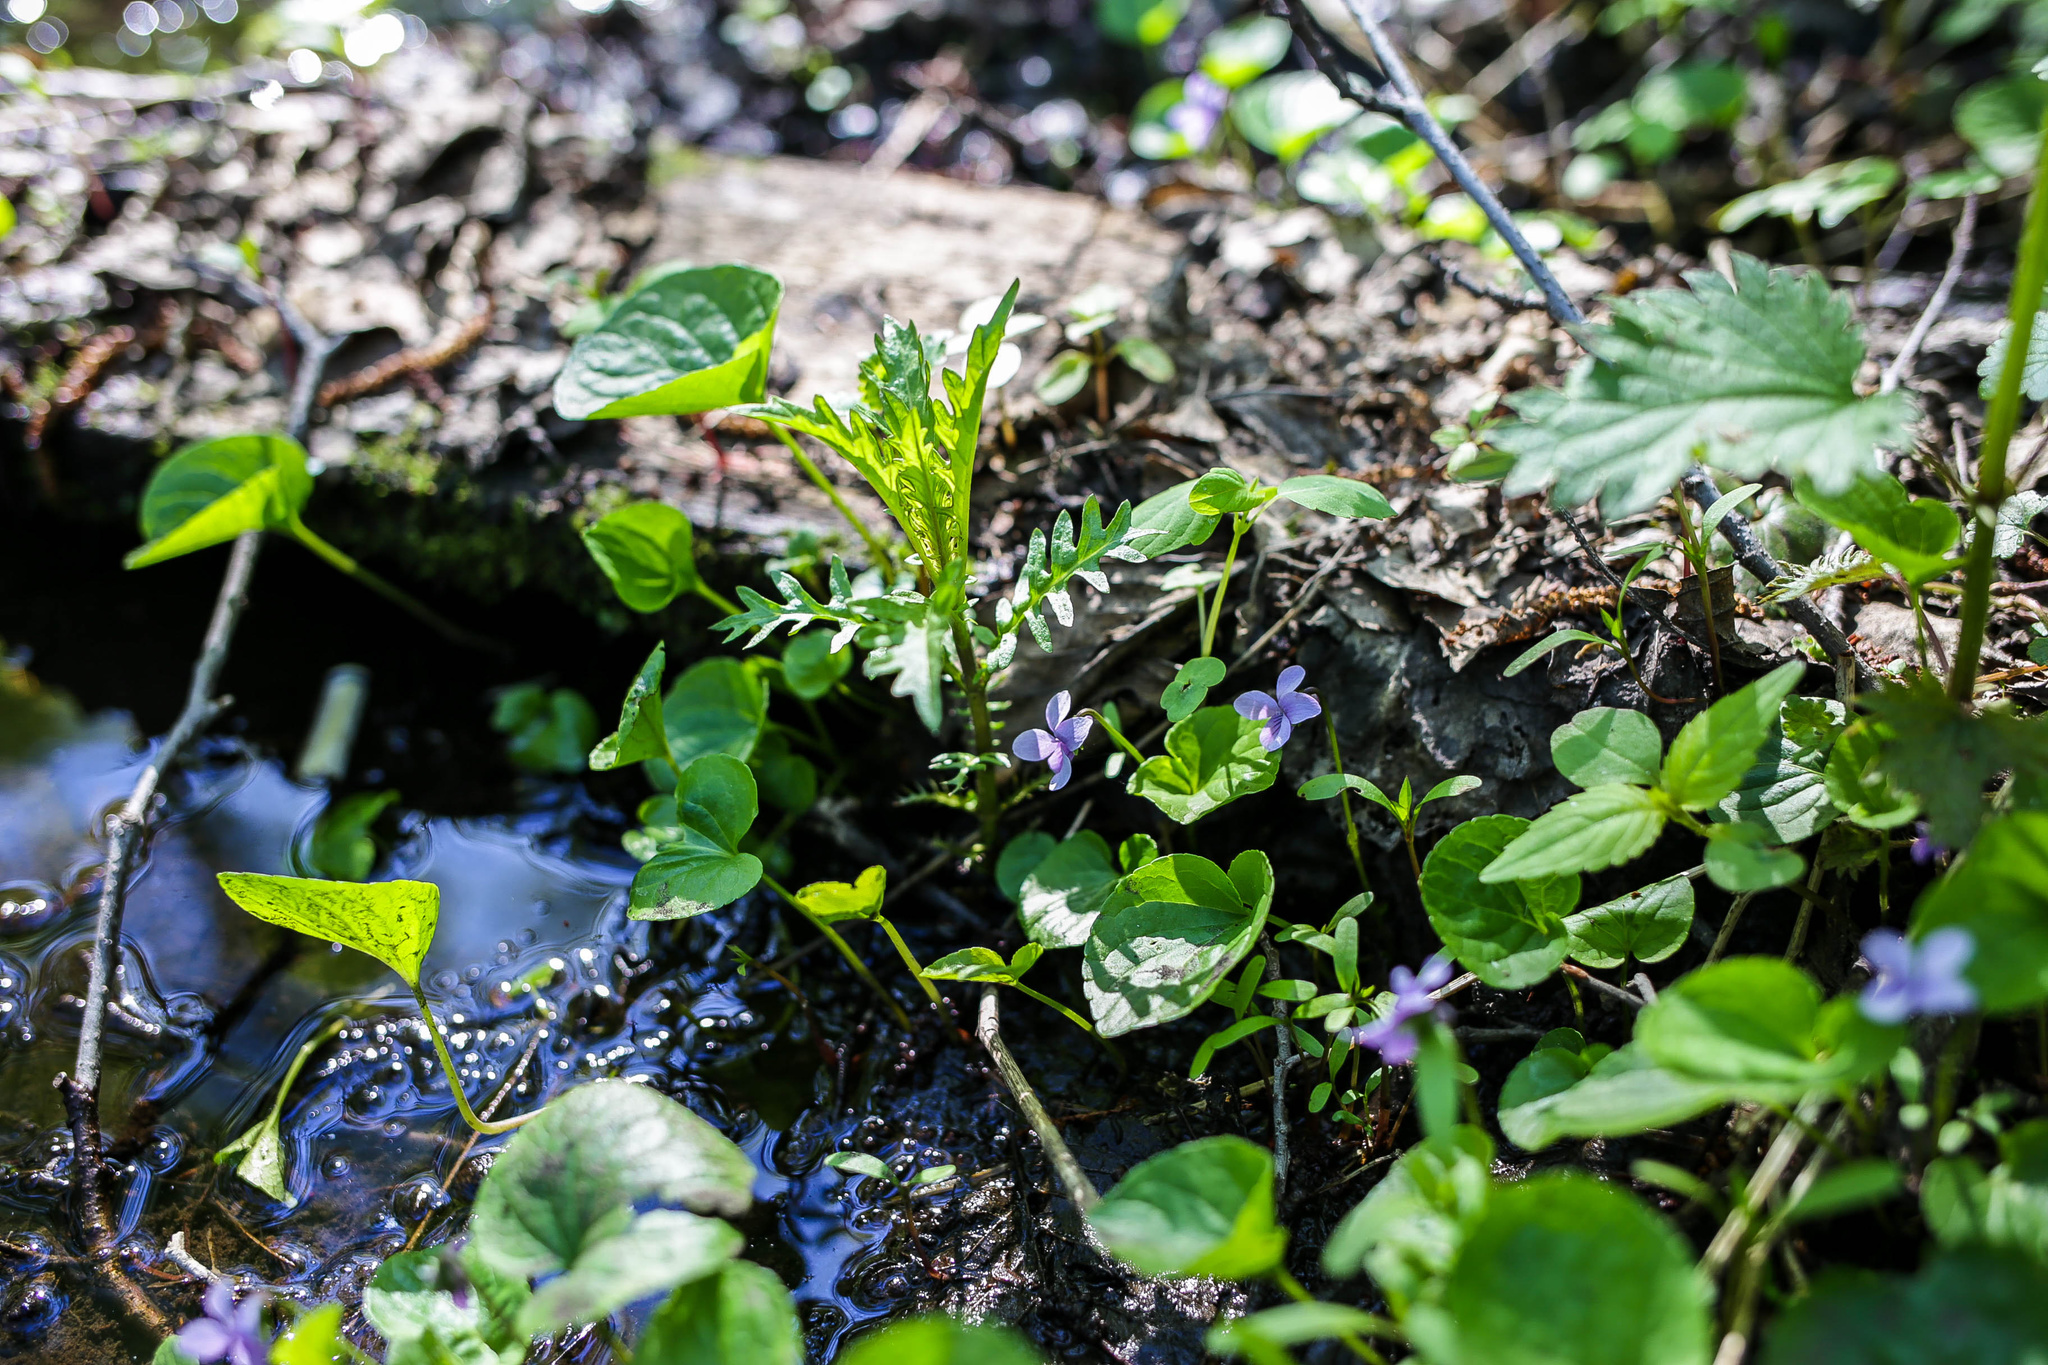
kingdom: Plantae
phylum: Tracheophyta
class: Magnoliopsida
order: Malpighiales
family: Violaceae
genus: Viola
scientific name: Viola palustris
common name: Marsh violet
